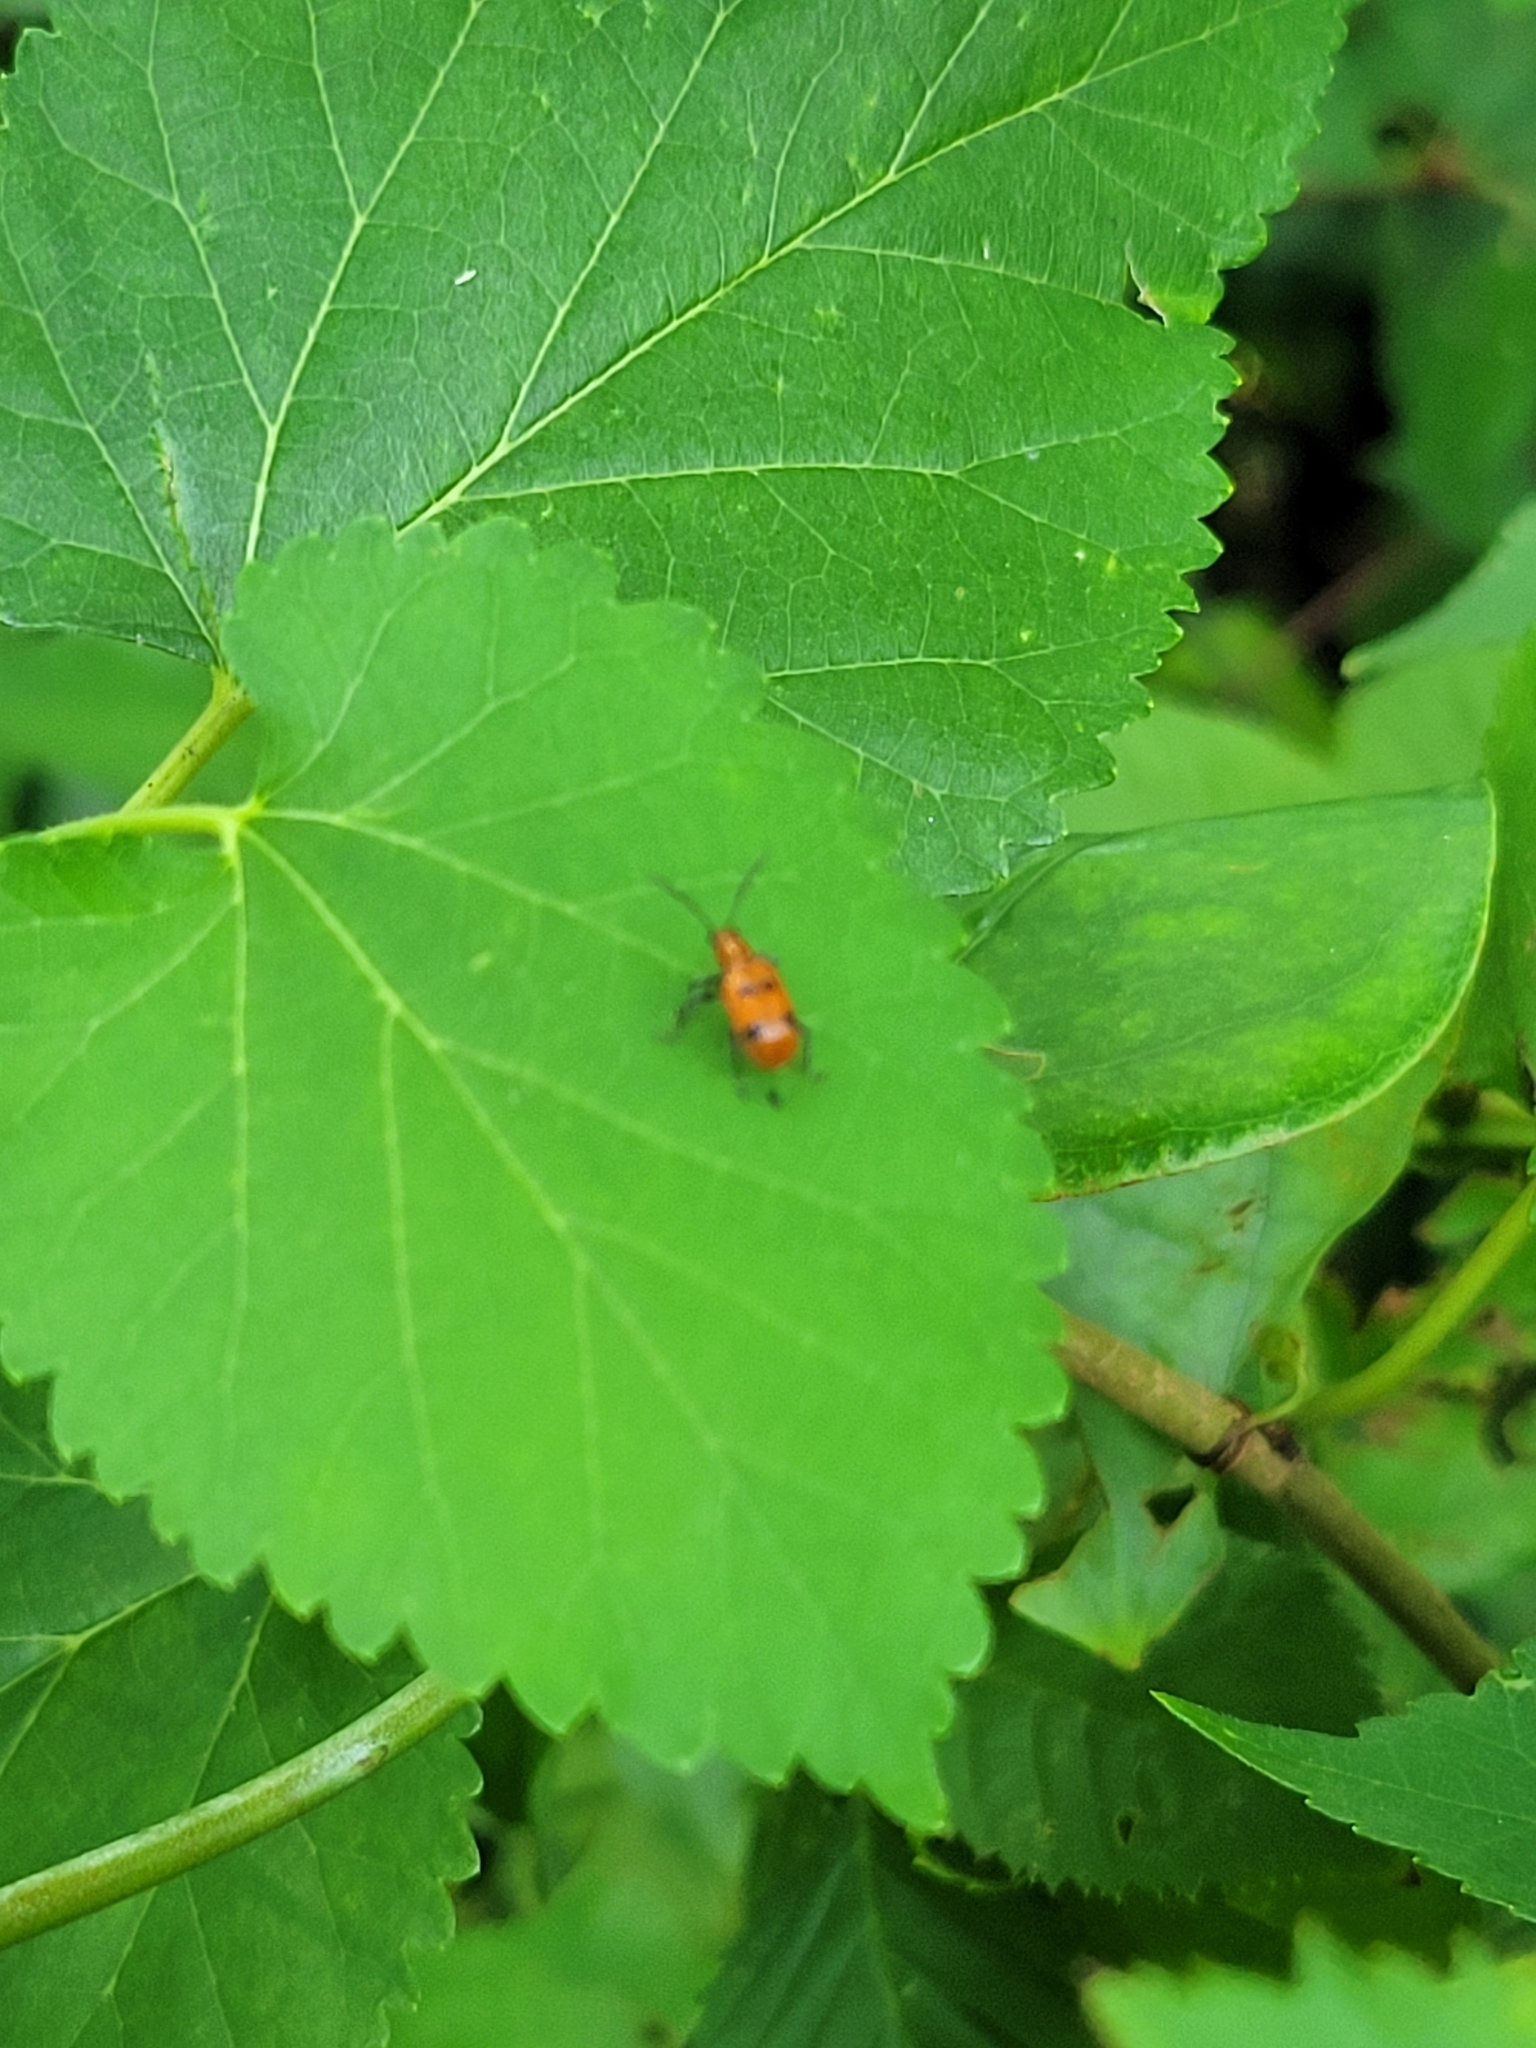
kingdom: Animalia
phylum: Arthropoda
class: Insecta
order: Coleoptera
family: Chrysomelidae
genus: Neolema
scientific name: Neolema sexpunctata
